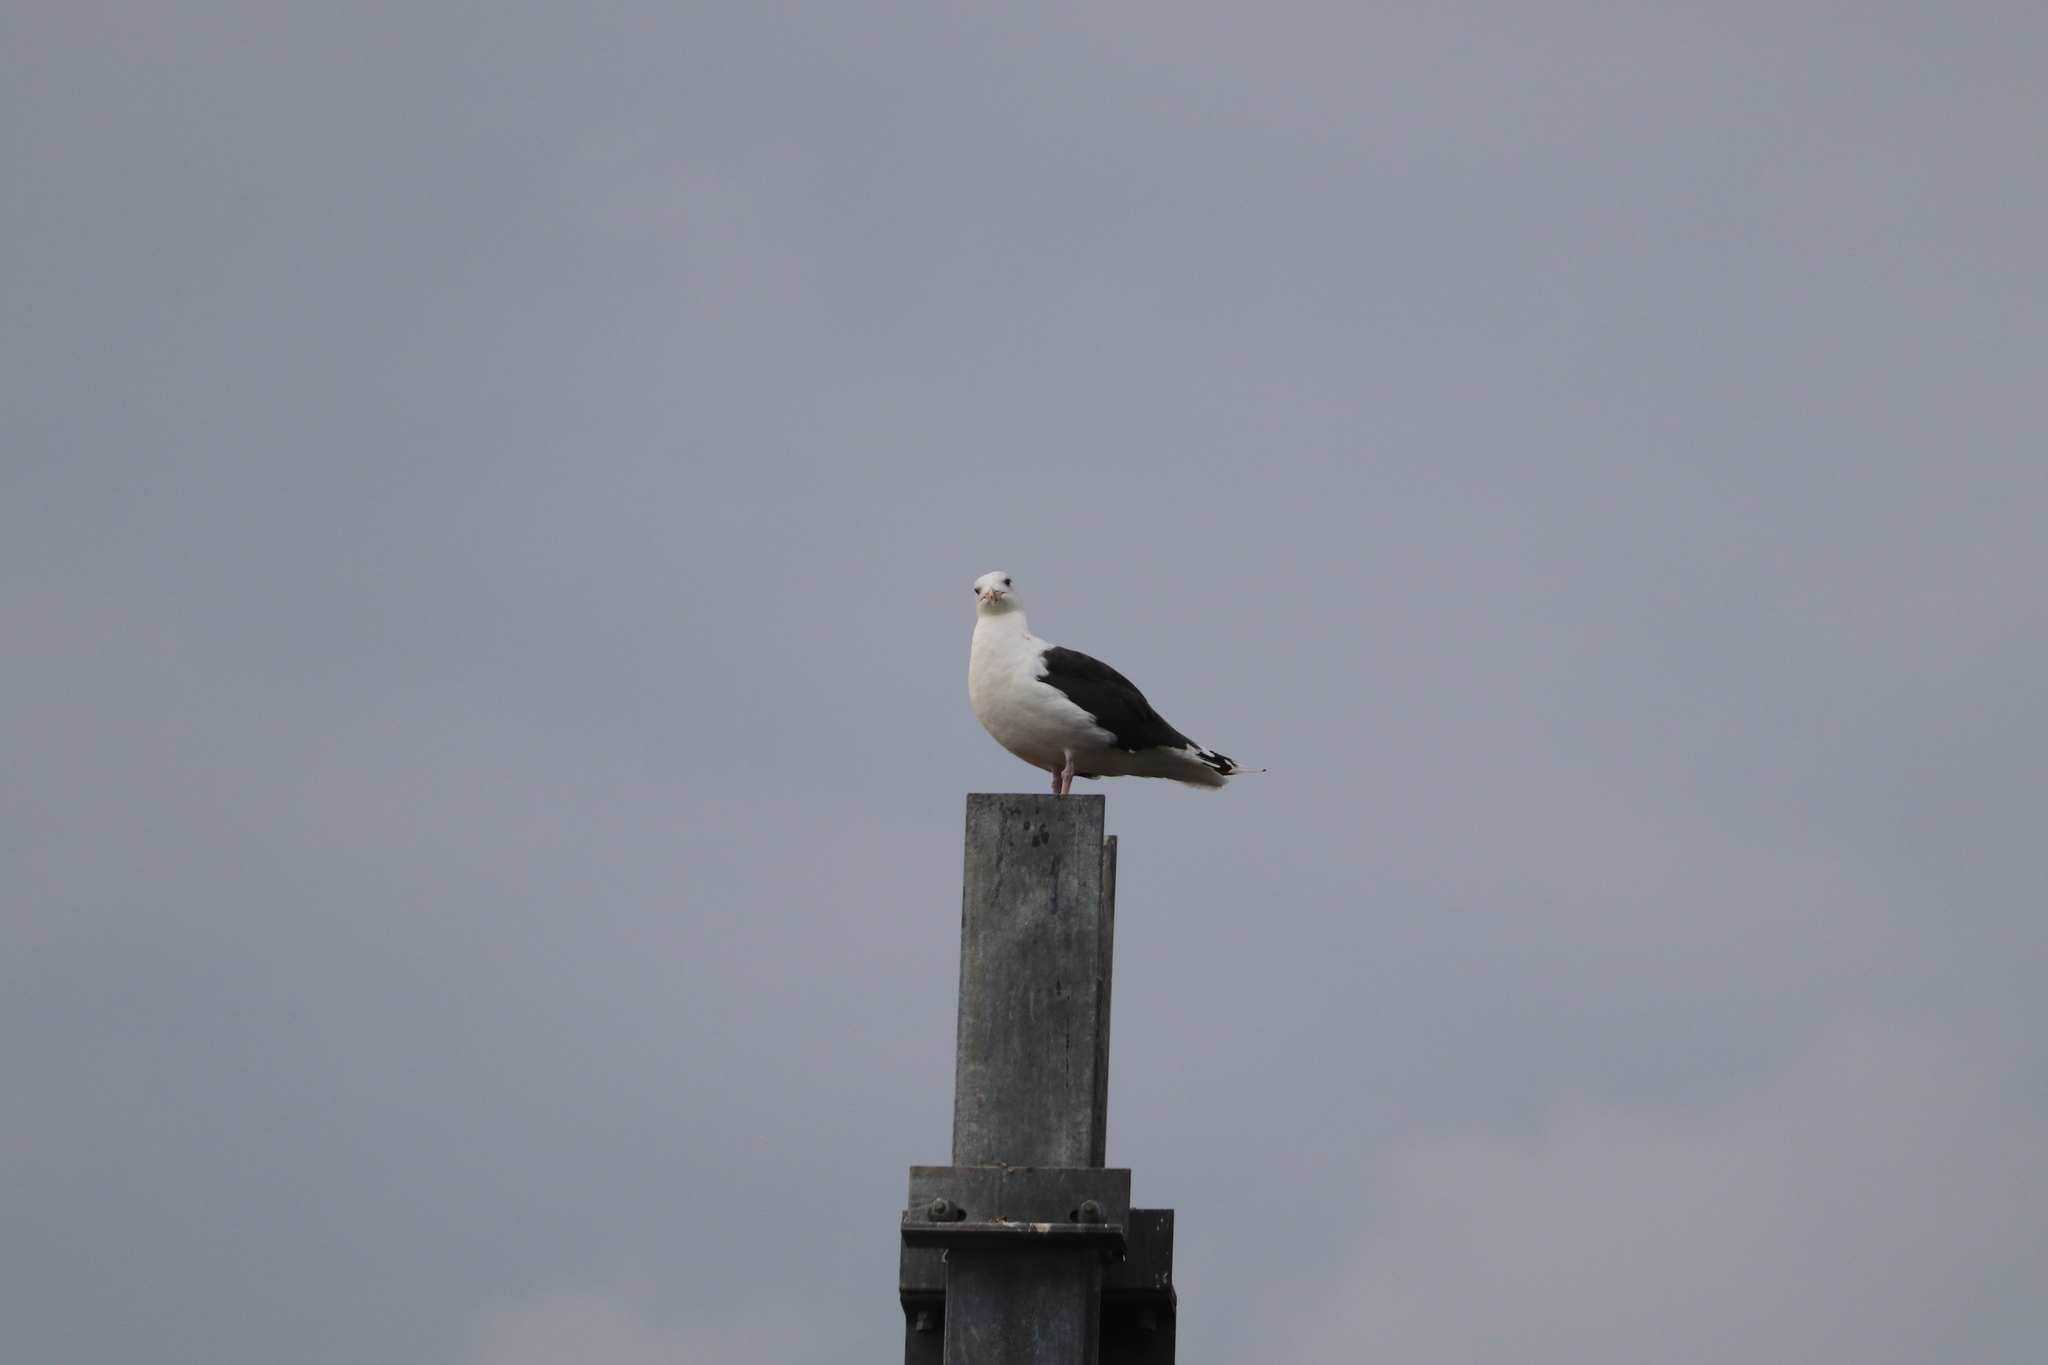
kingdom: Animalia
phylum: Chordata
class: Aves
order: Charadriiformes
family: Laridae
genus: Larus
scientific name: Larus marinus
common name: Great black-backed gull
